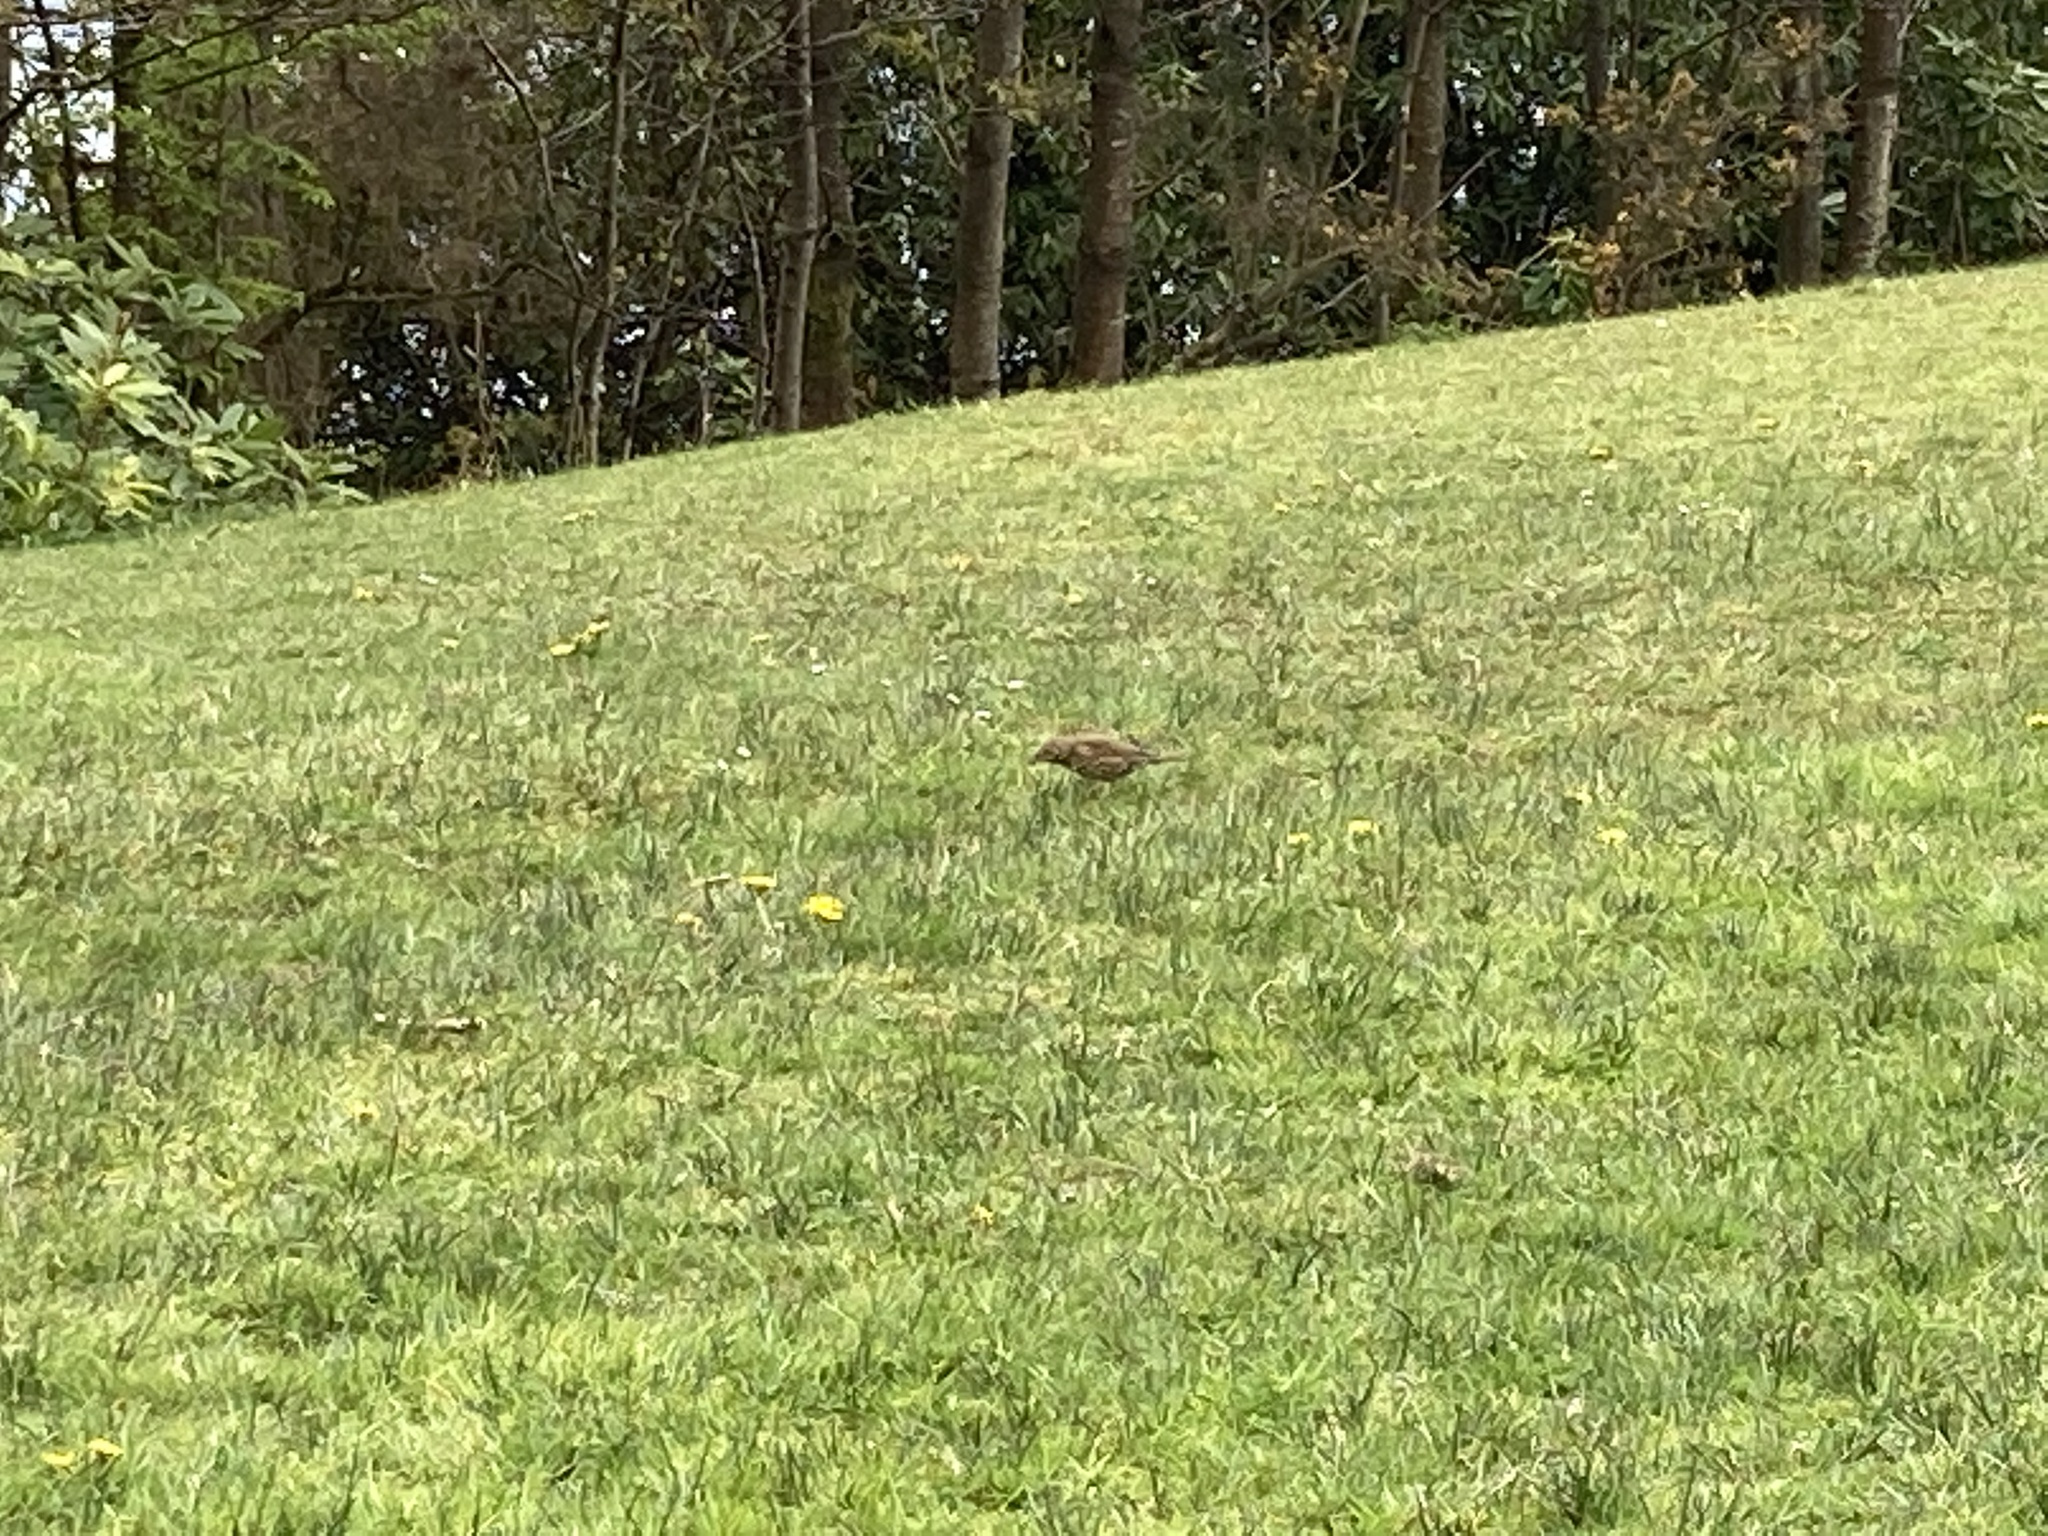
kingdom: Animalia
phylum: Chordata
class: Aves
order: Passeriformes
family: Turdidae
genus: Turdus
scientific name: Turdus philomelos
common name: Song thrush
